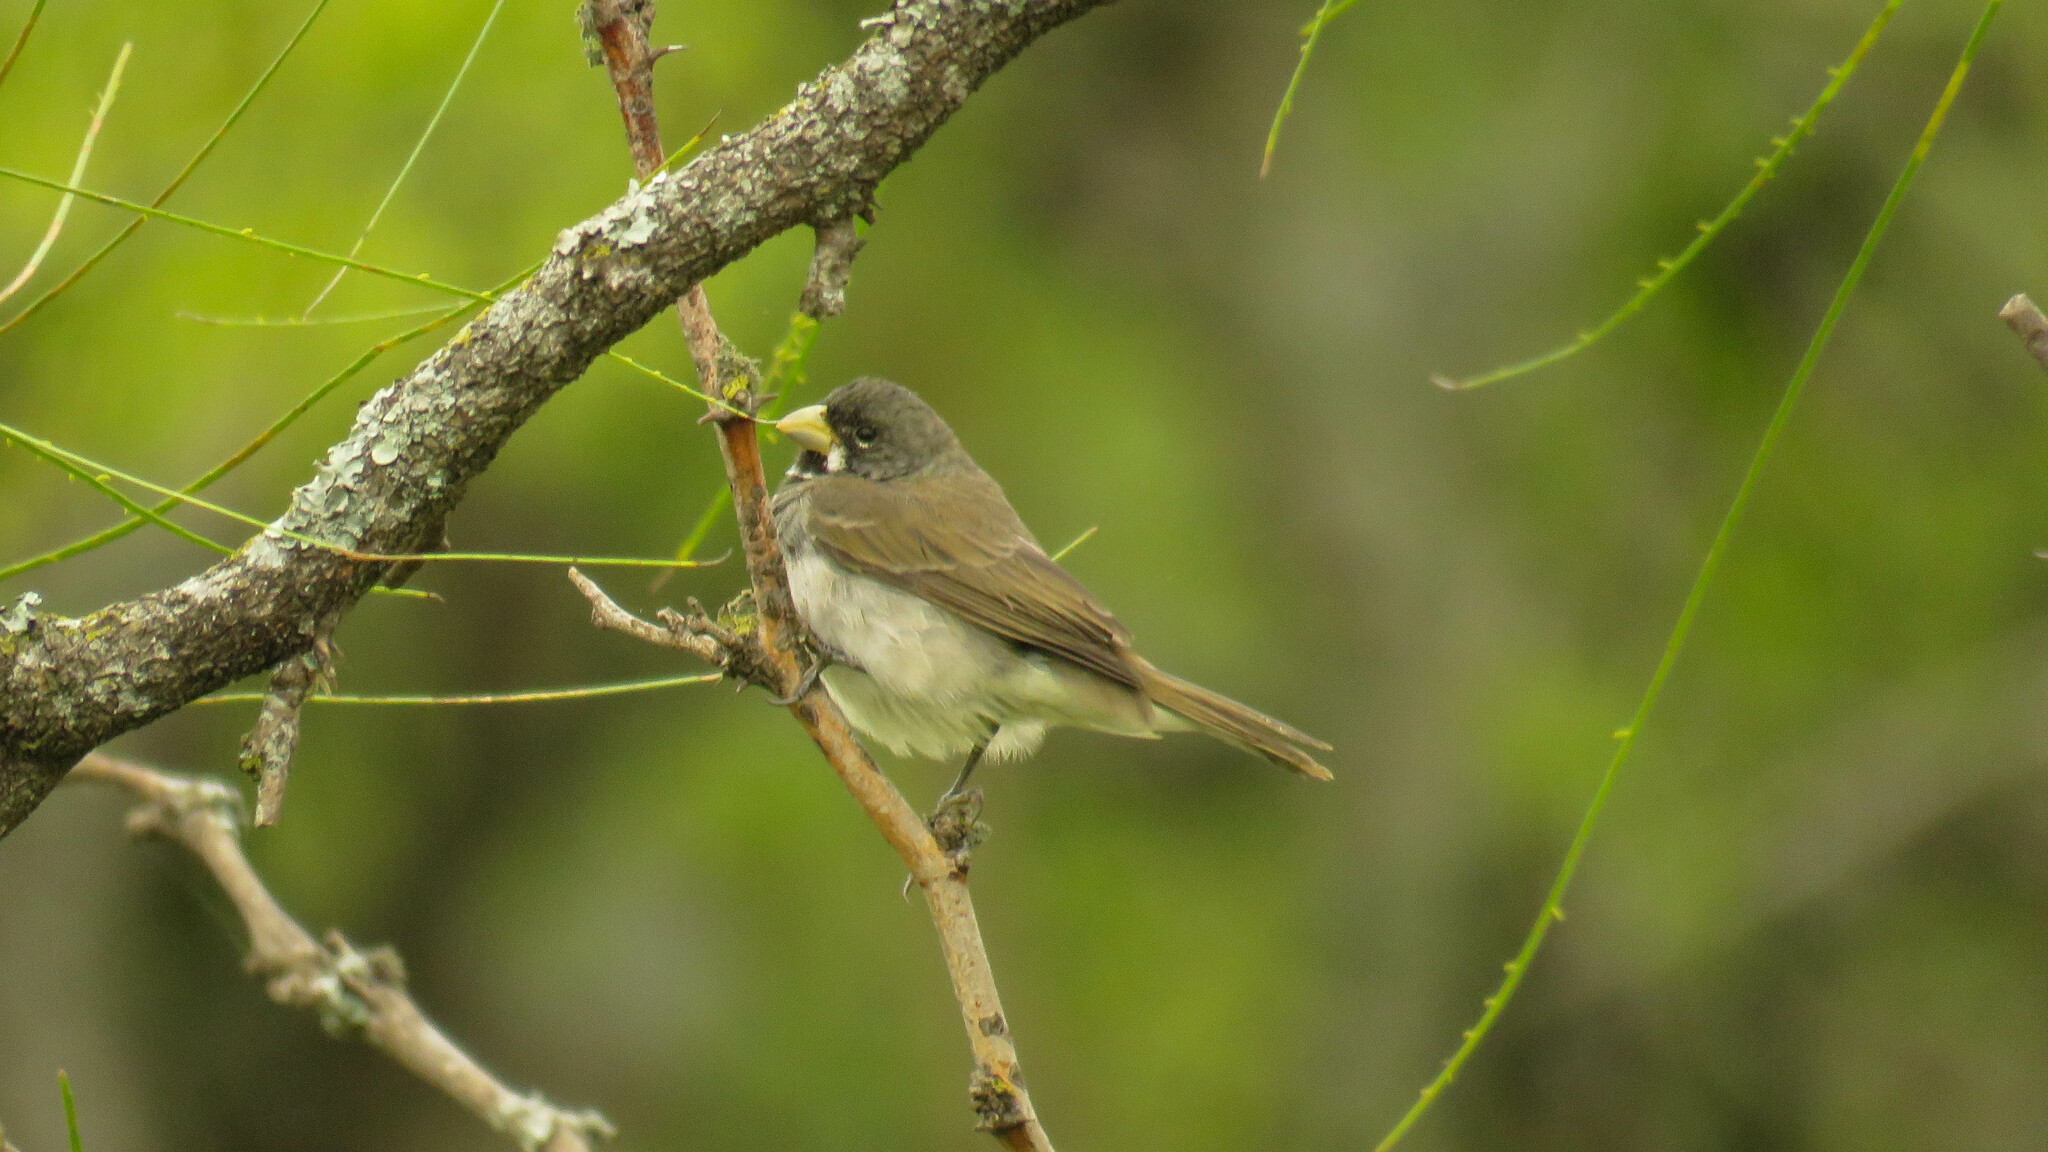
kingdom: Animalia
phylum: Chordata
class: Aves
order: Passeriformes
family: Thraupidae
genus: Sporophila
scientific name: Sporophila caerulescens
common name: Double-collared seedeater
